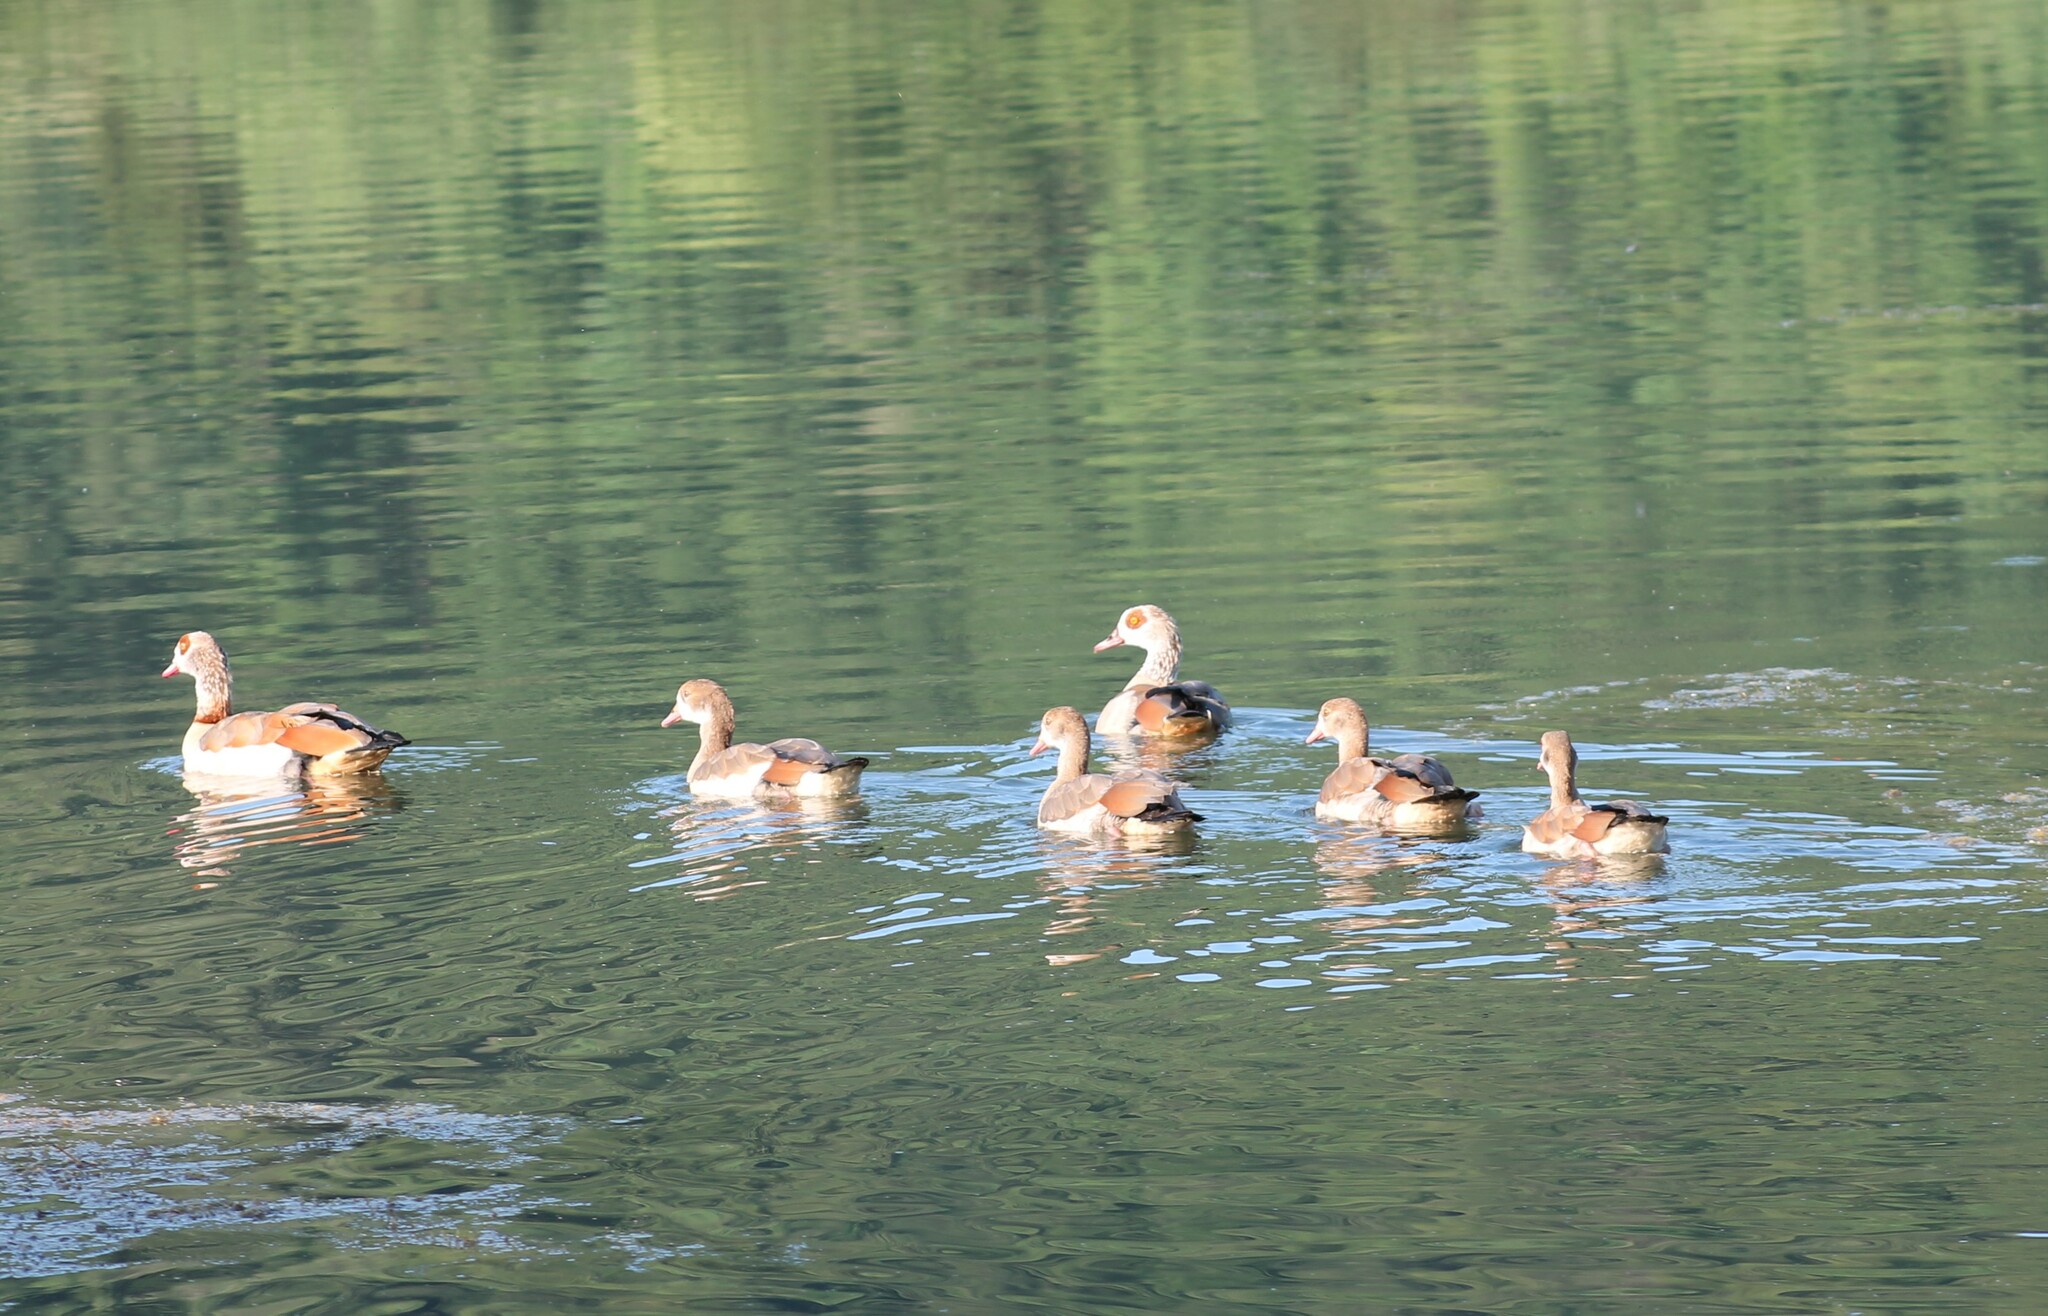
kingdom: Animalia
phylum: Chordata
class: Aves
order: Anseriformes
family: Anatidae
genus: Alopochen
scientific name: Alopochen aegyptiaca
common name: Egyptian goose
